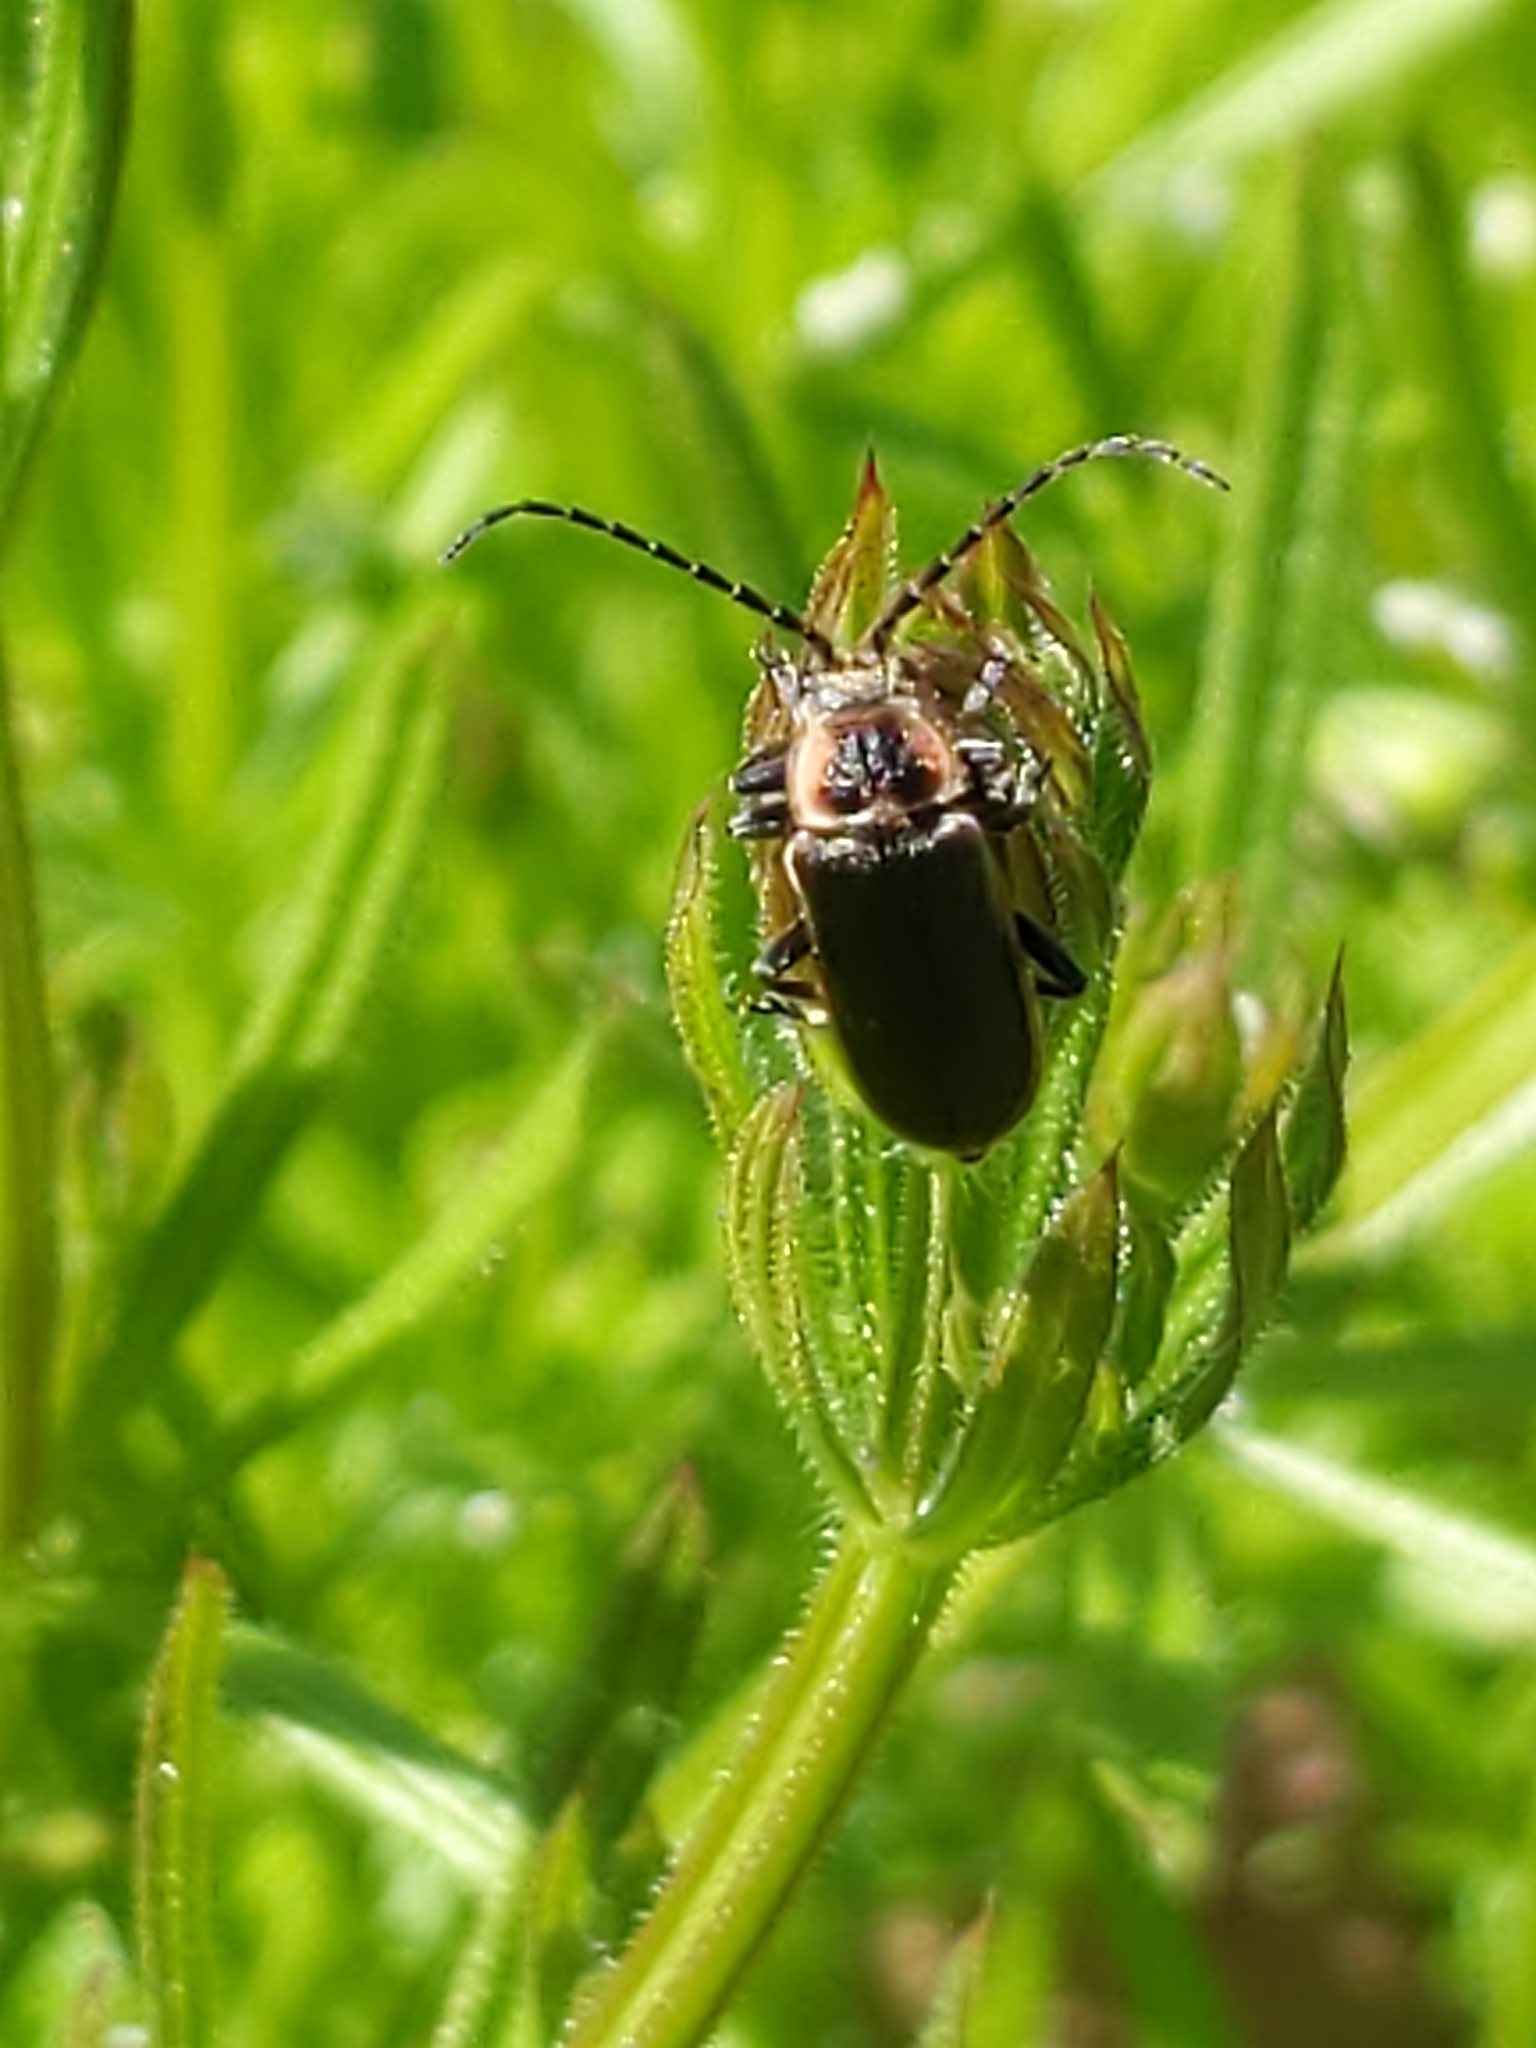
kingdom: Animalia
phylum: Arthropoda
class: Insecta
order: Coleoptera
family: Cantharidae
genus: Atalantycha
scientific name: Atalantycha dentigera
